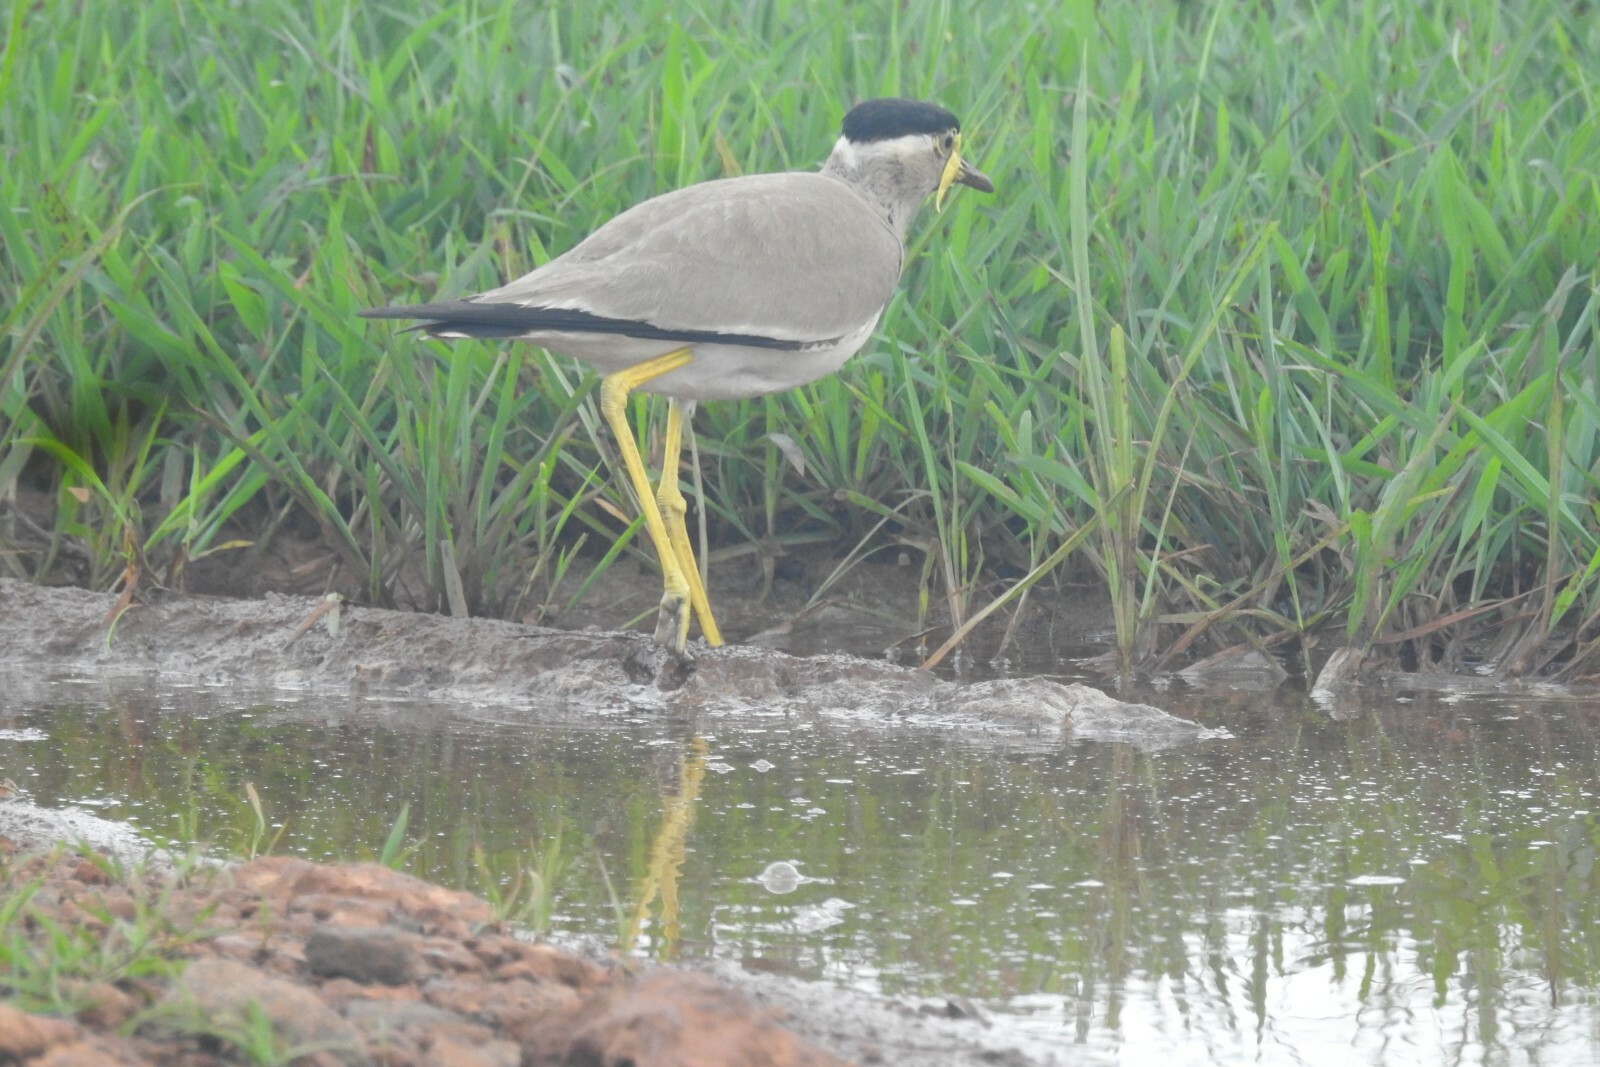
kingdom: Animalia
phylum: Chordata
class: Aves
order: Charadriiformes
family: Charadriidae
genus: Vanellus
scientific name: Vanellus malabaricus
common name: Yellow-wattled lapwing
